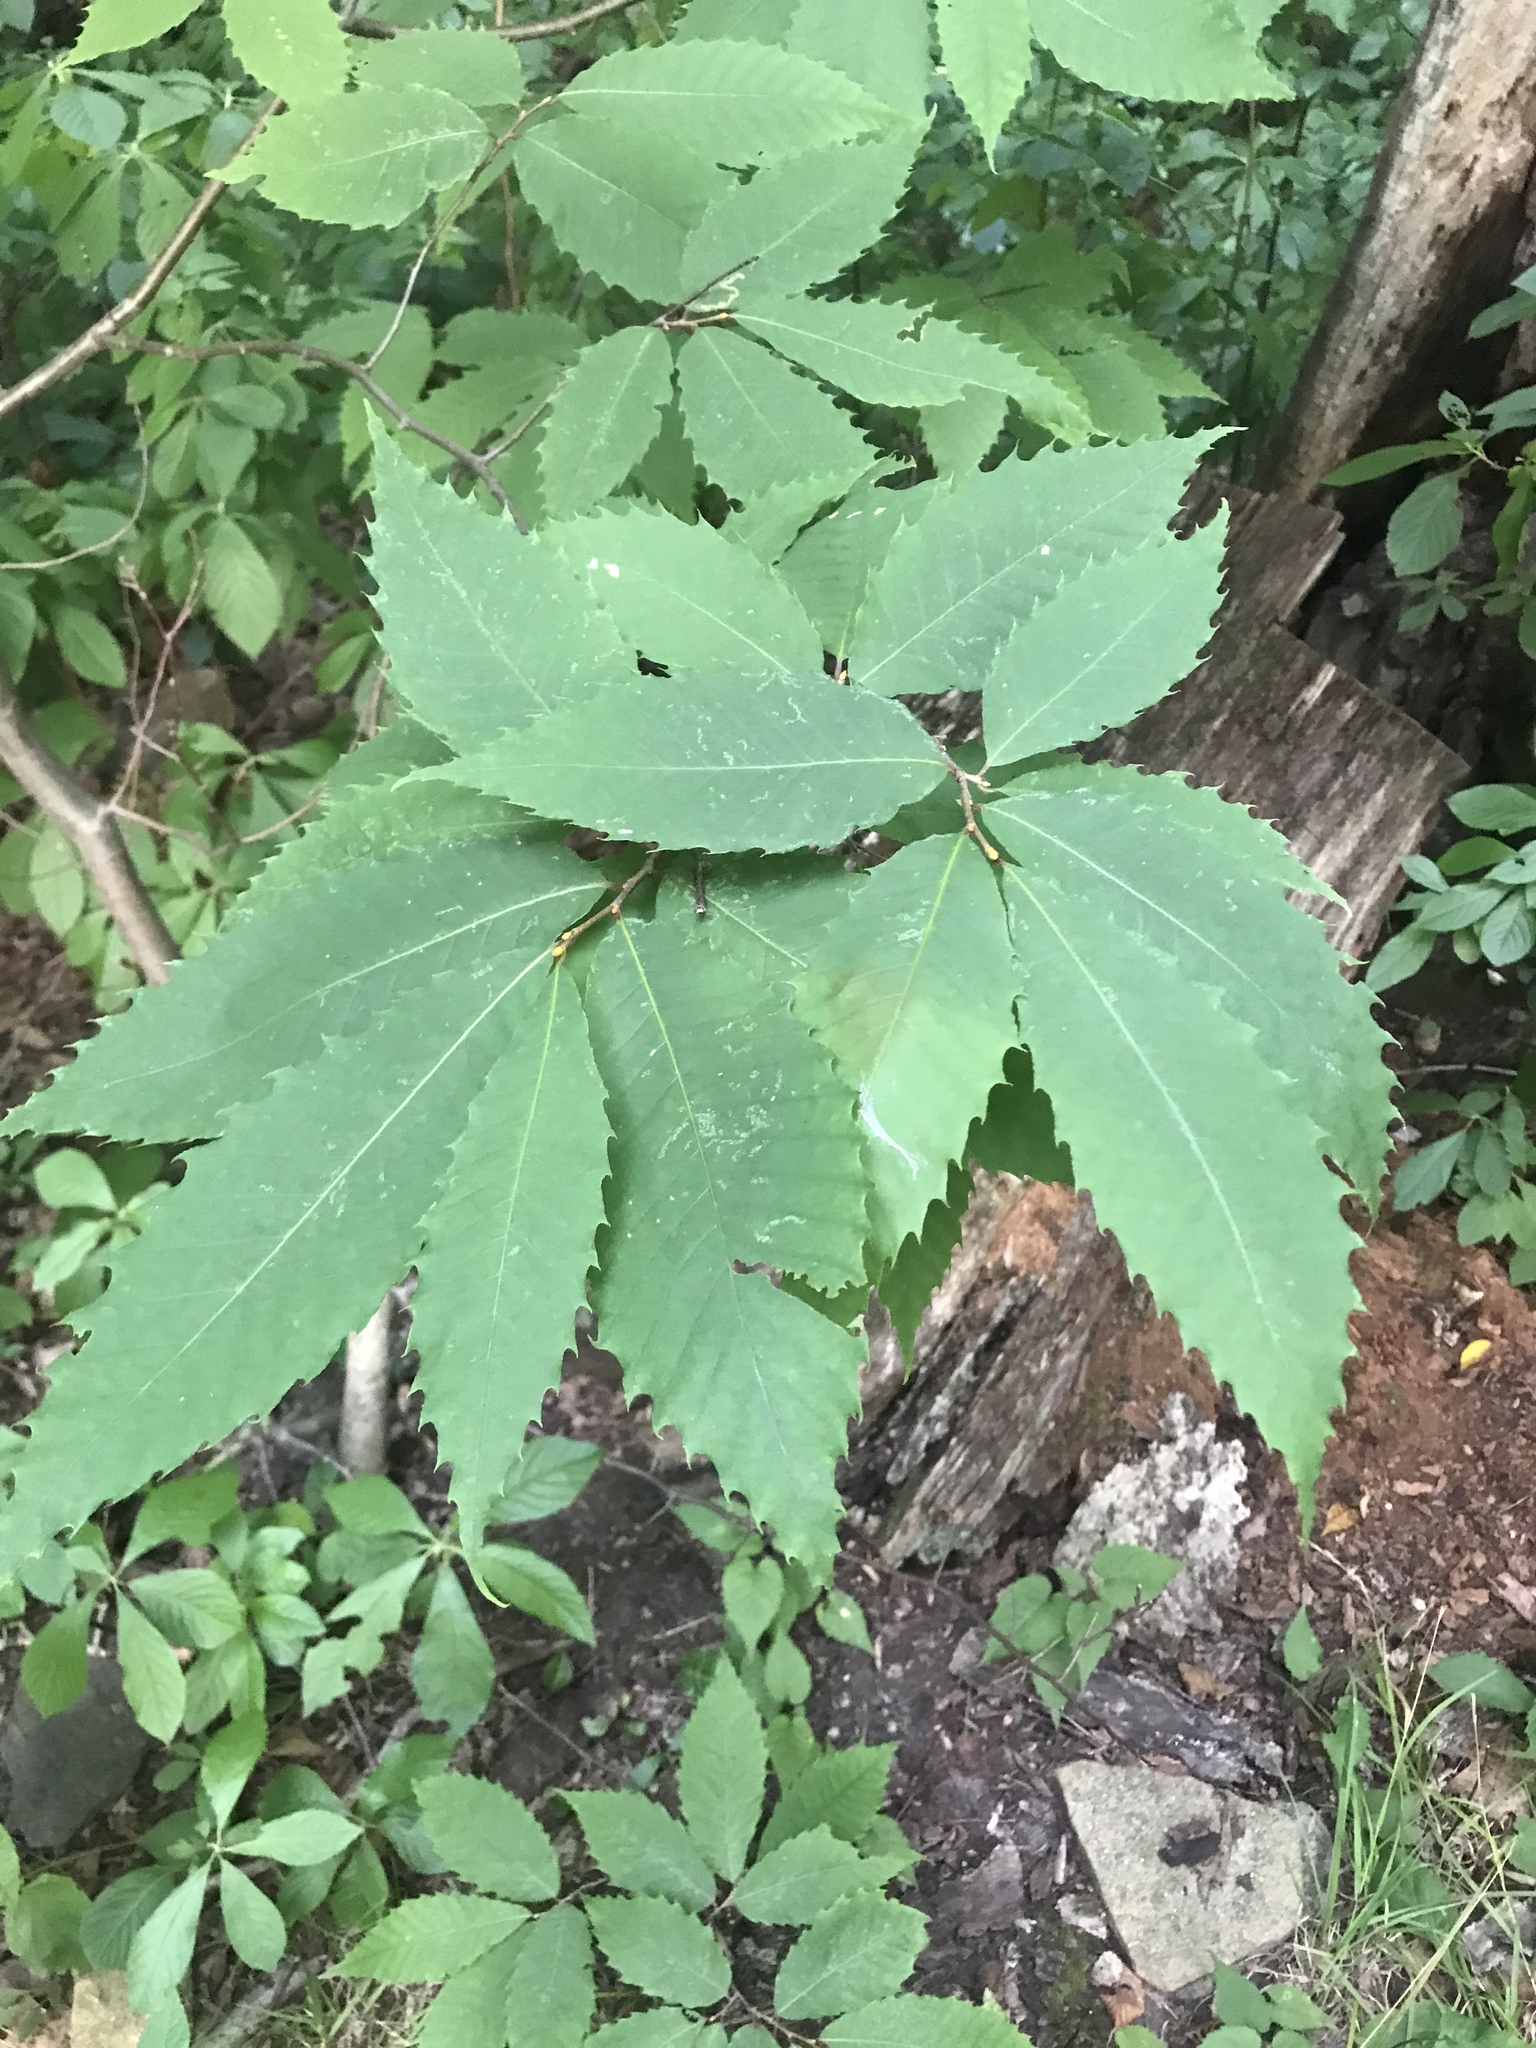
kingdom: Plantae
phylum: Tracheophyta
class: Magnoliopsida
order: Fagales
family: Fagaceae
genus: Castanea
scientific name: Castanea dentata
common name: American chestnut
